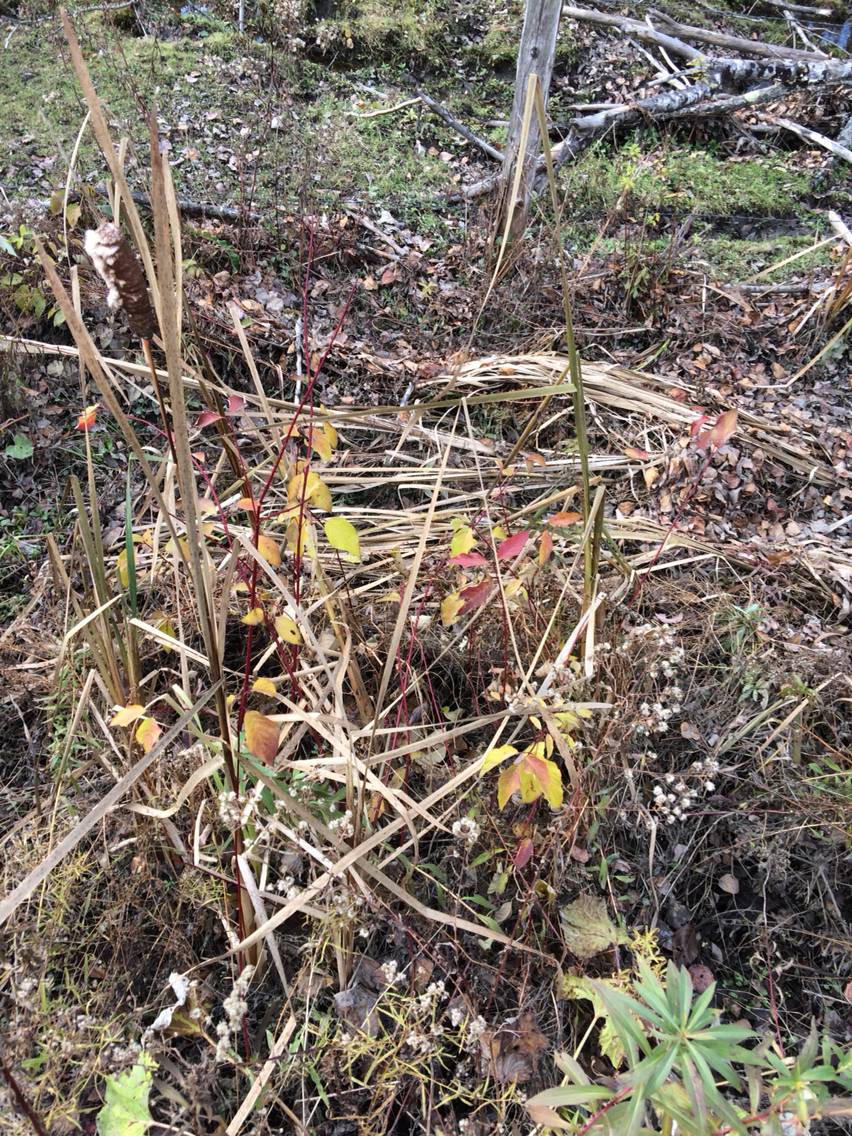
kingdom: Plantae
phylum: Tracheophyta
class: Magnoliopsida
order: Cornales
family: Cornaceae
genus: Cornus
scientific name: Cornus sericea
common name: Red-osier dogwood
